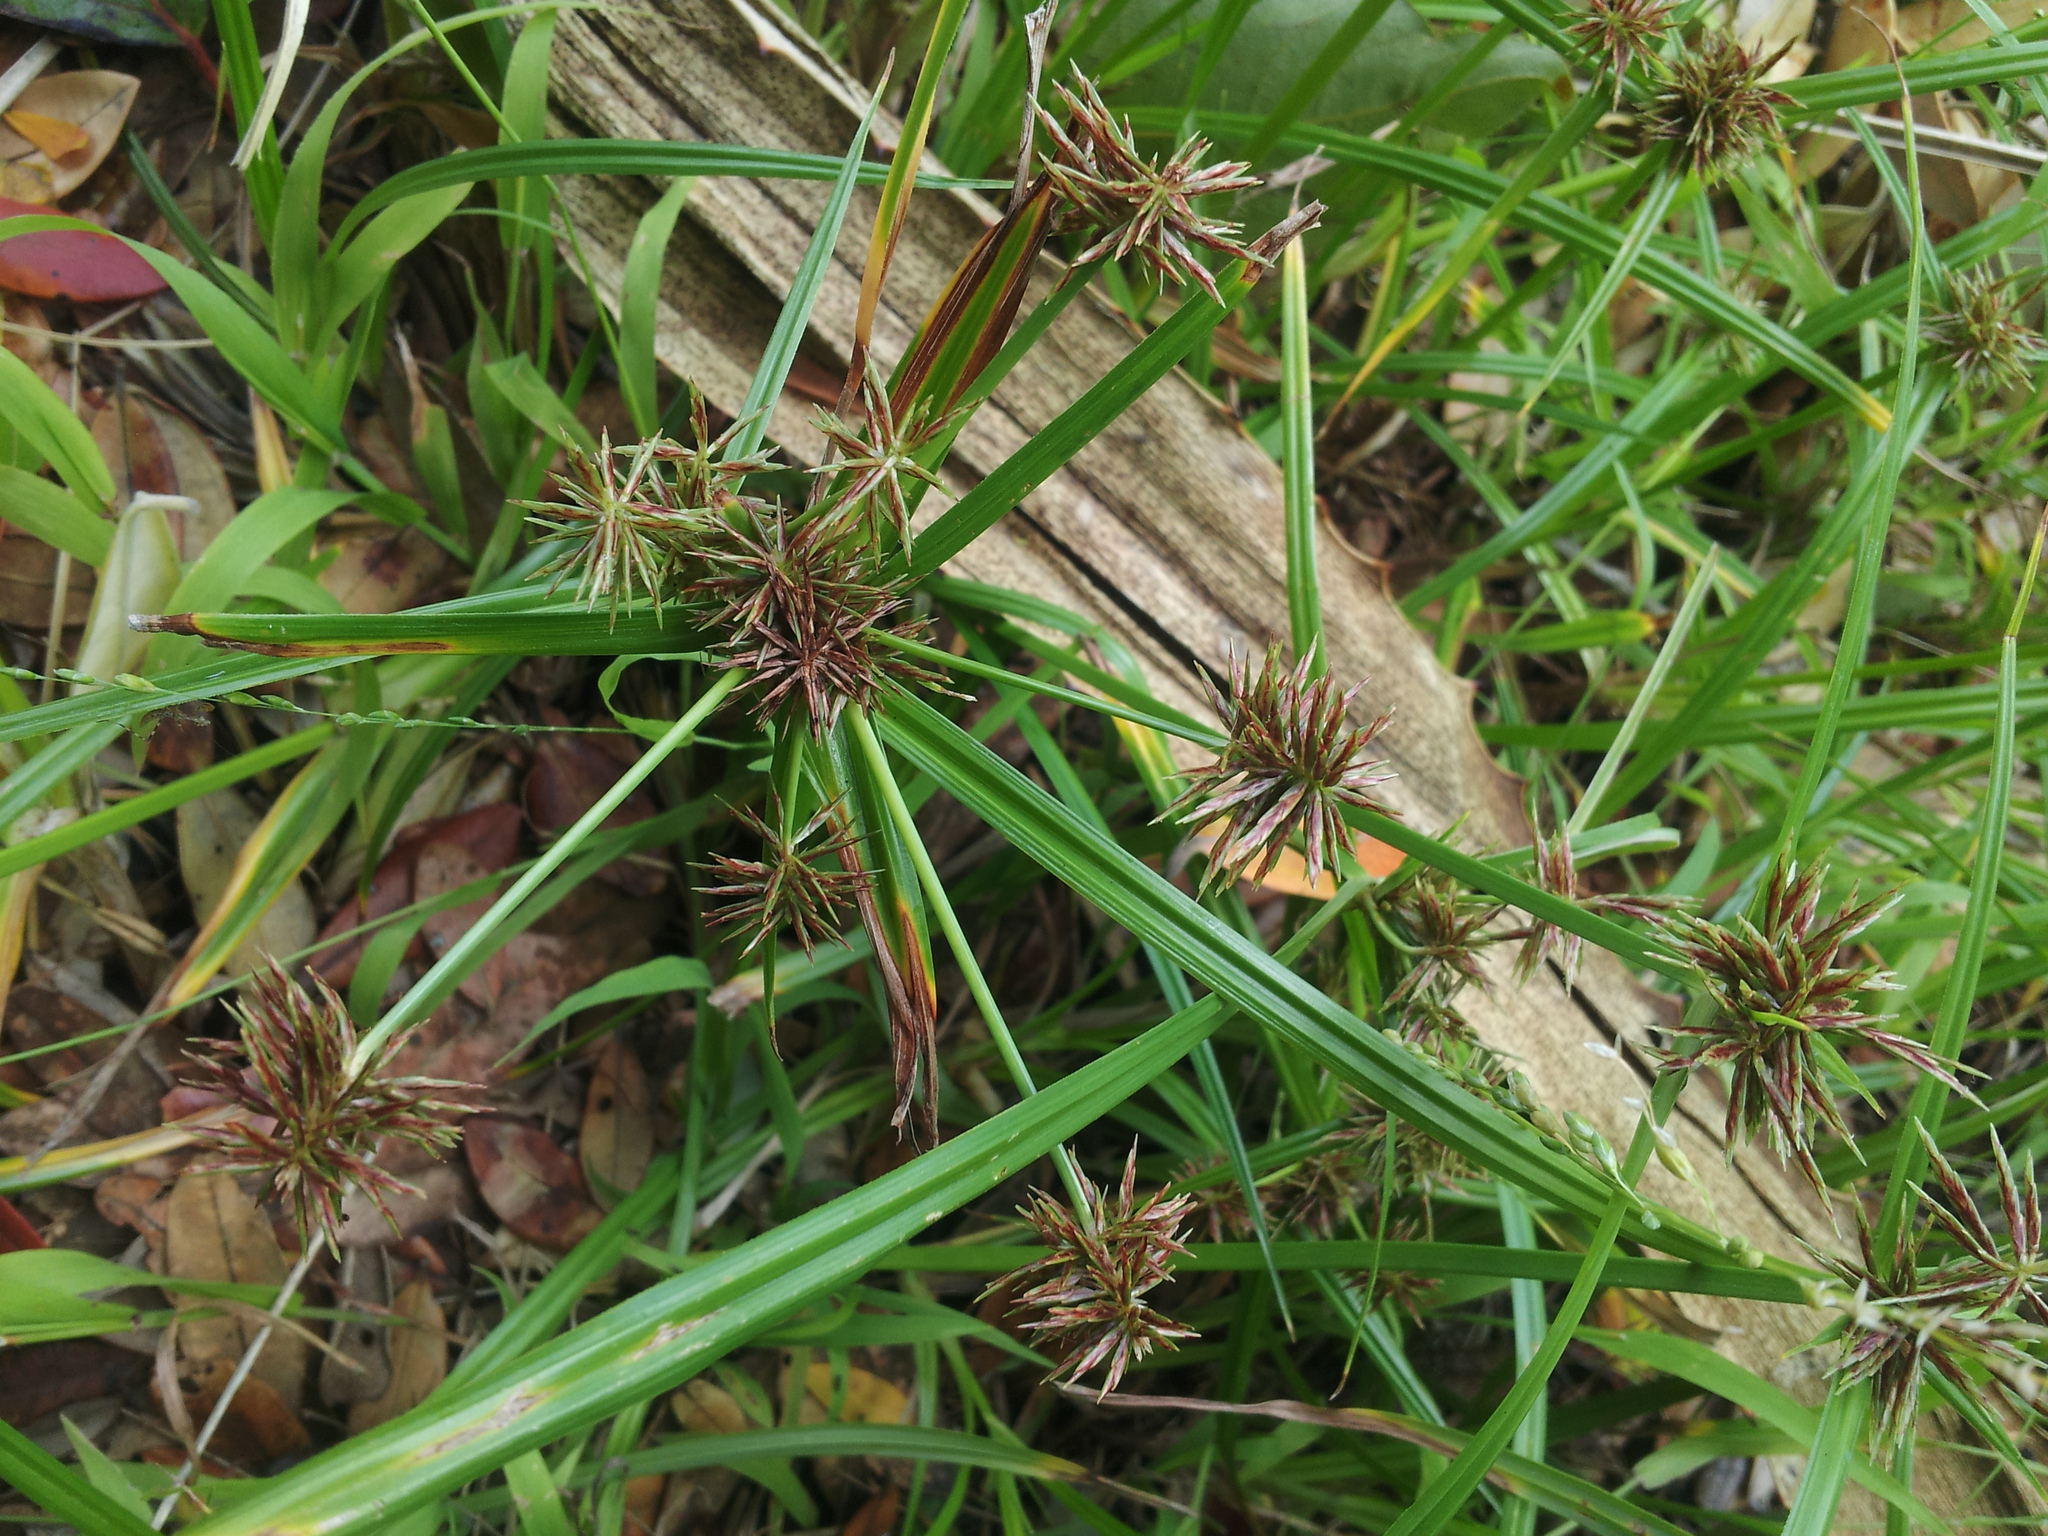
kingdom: Plantae
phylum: Tracheophyta
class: Liliopsida
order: Poales
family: Cyperaceae
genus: Cyperus
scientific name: Cyperus congestus
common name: Dense flat sedge
